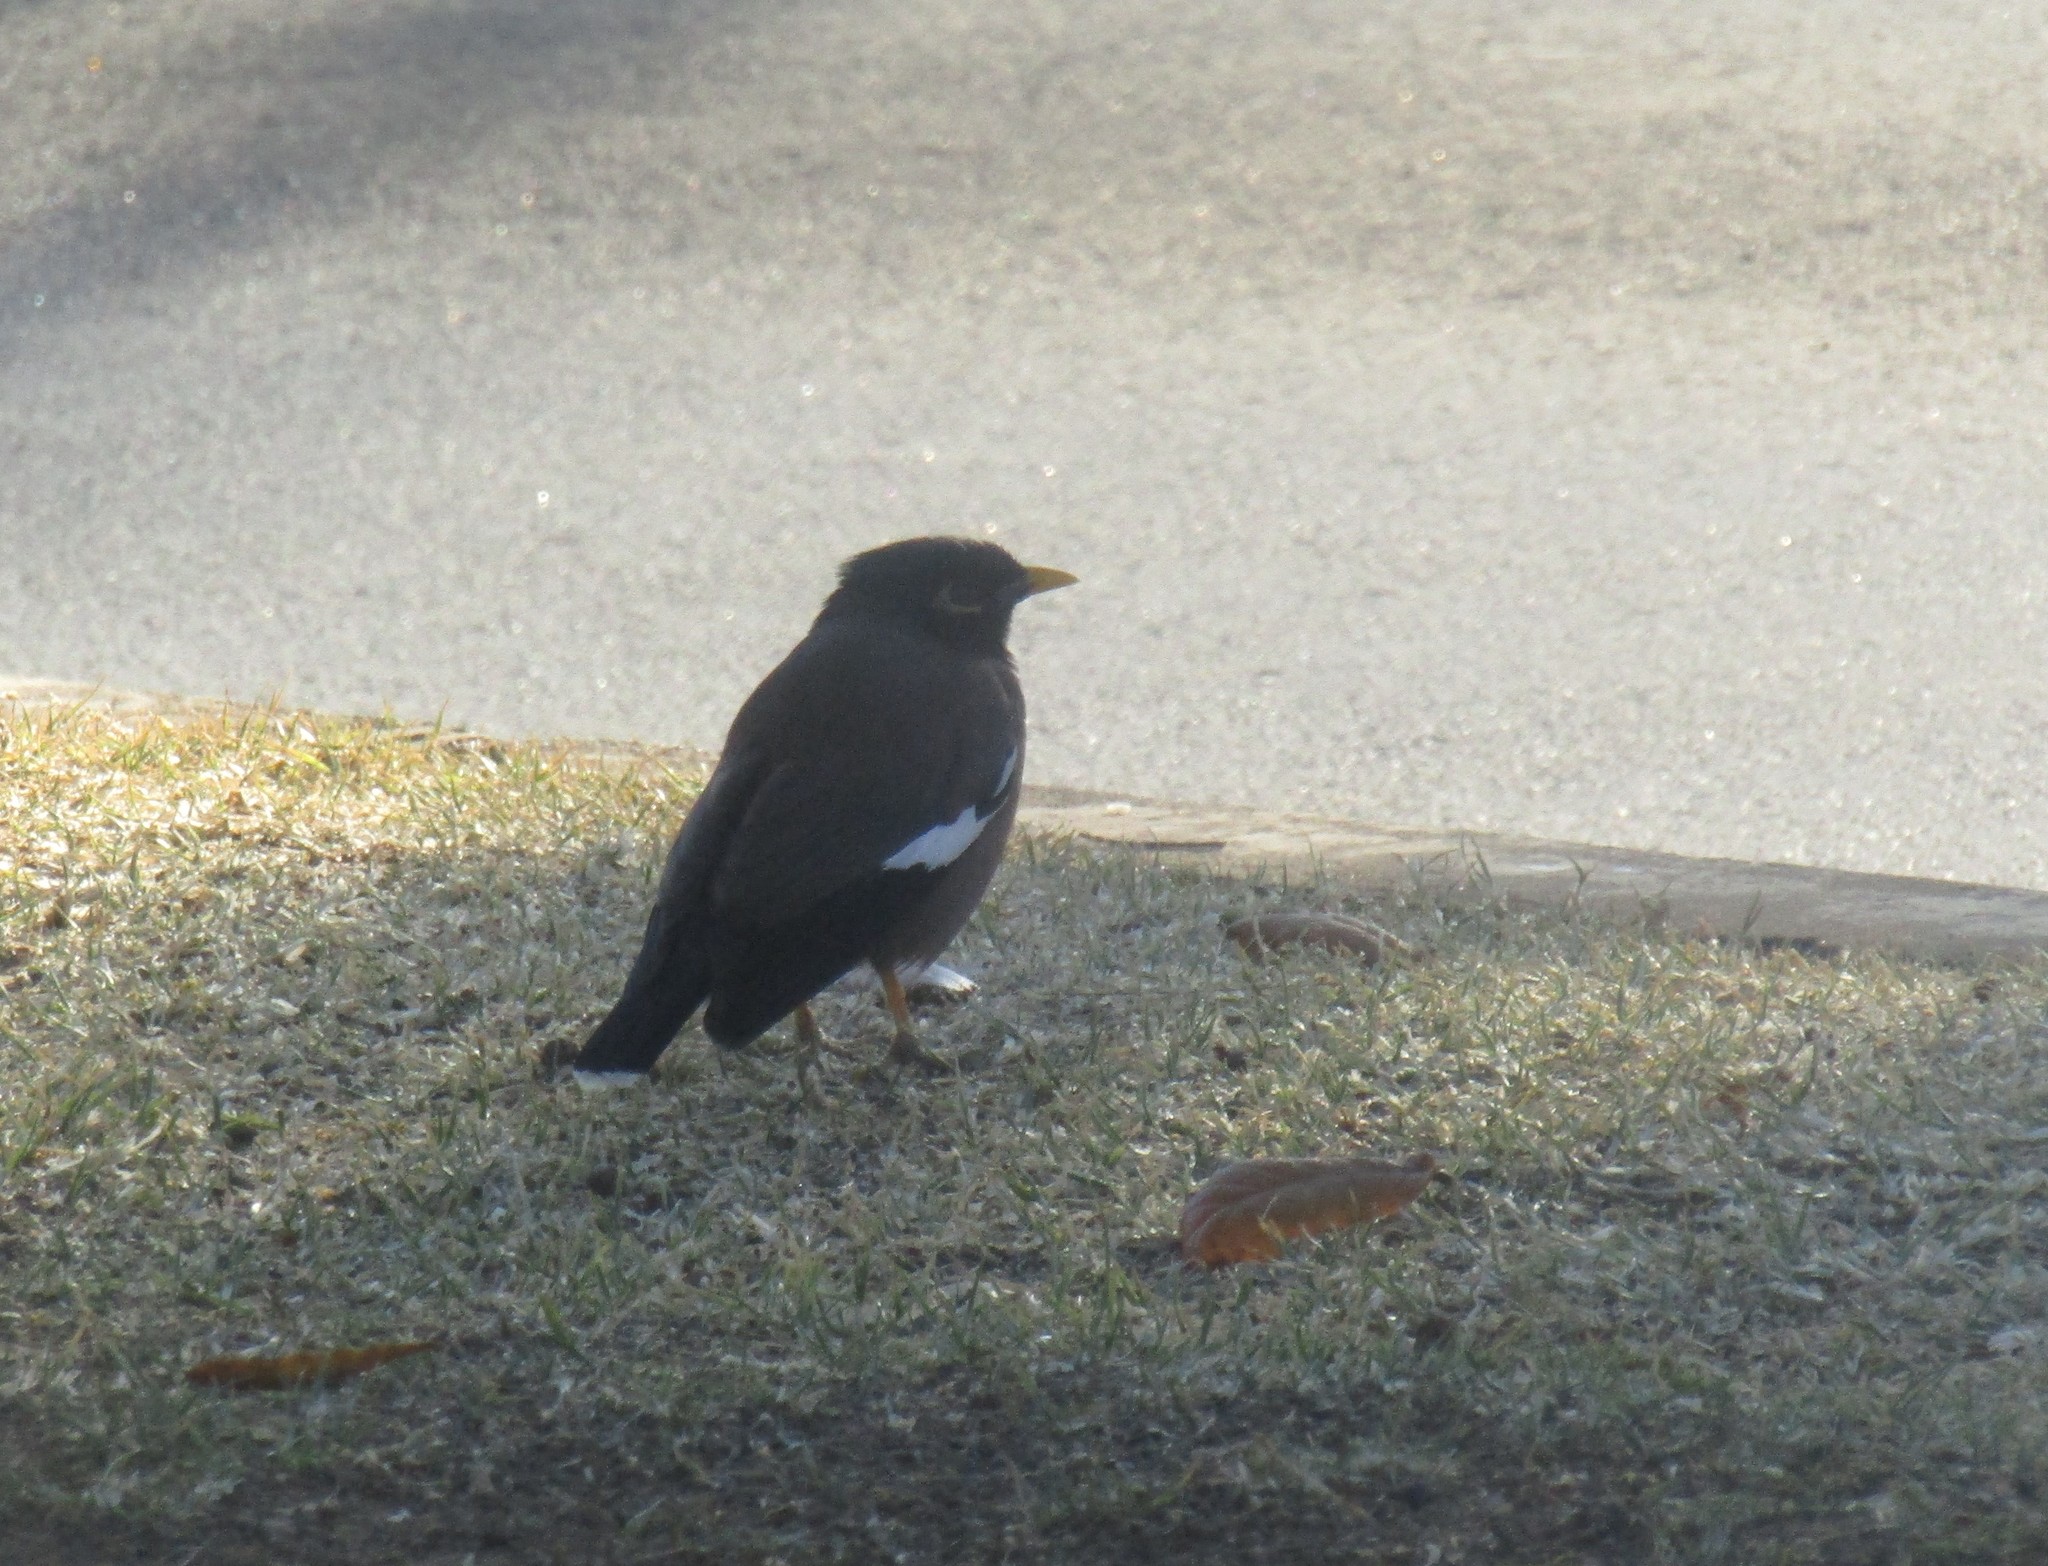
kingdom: Animalia
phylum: Chordata
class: Aves
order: Passeriformes
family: Sturnidae
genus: Acridotheres
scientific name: Acridotheres tristis
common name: Common myna
